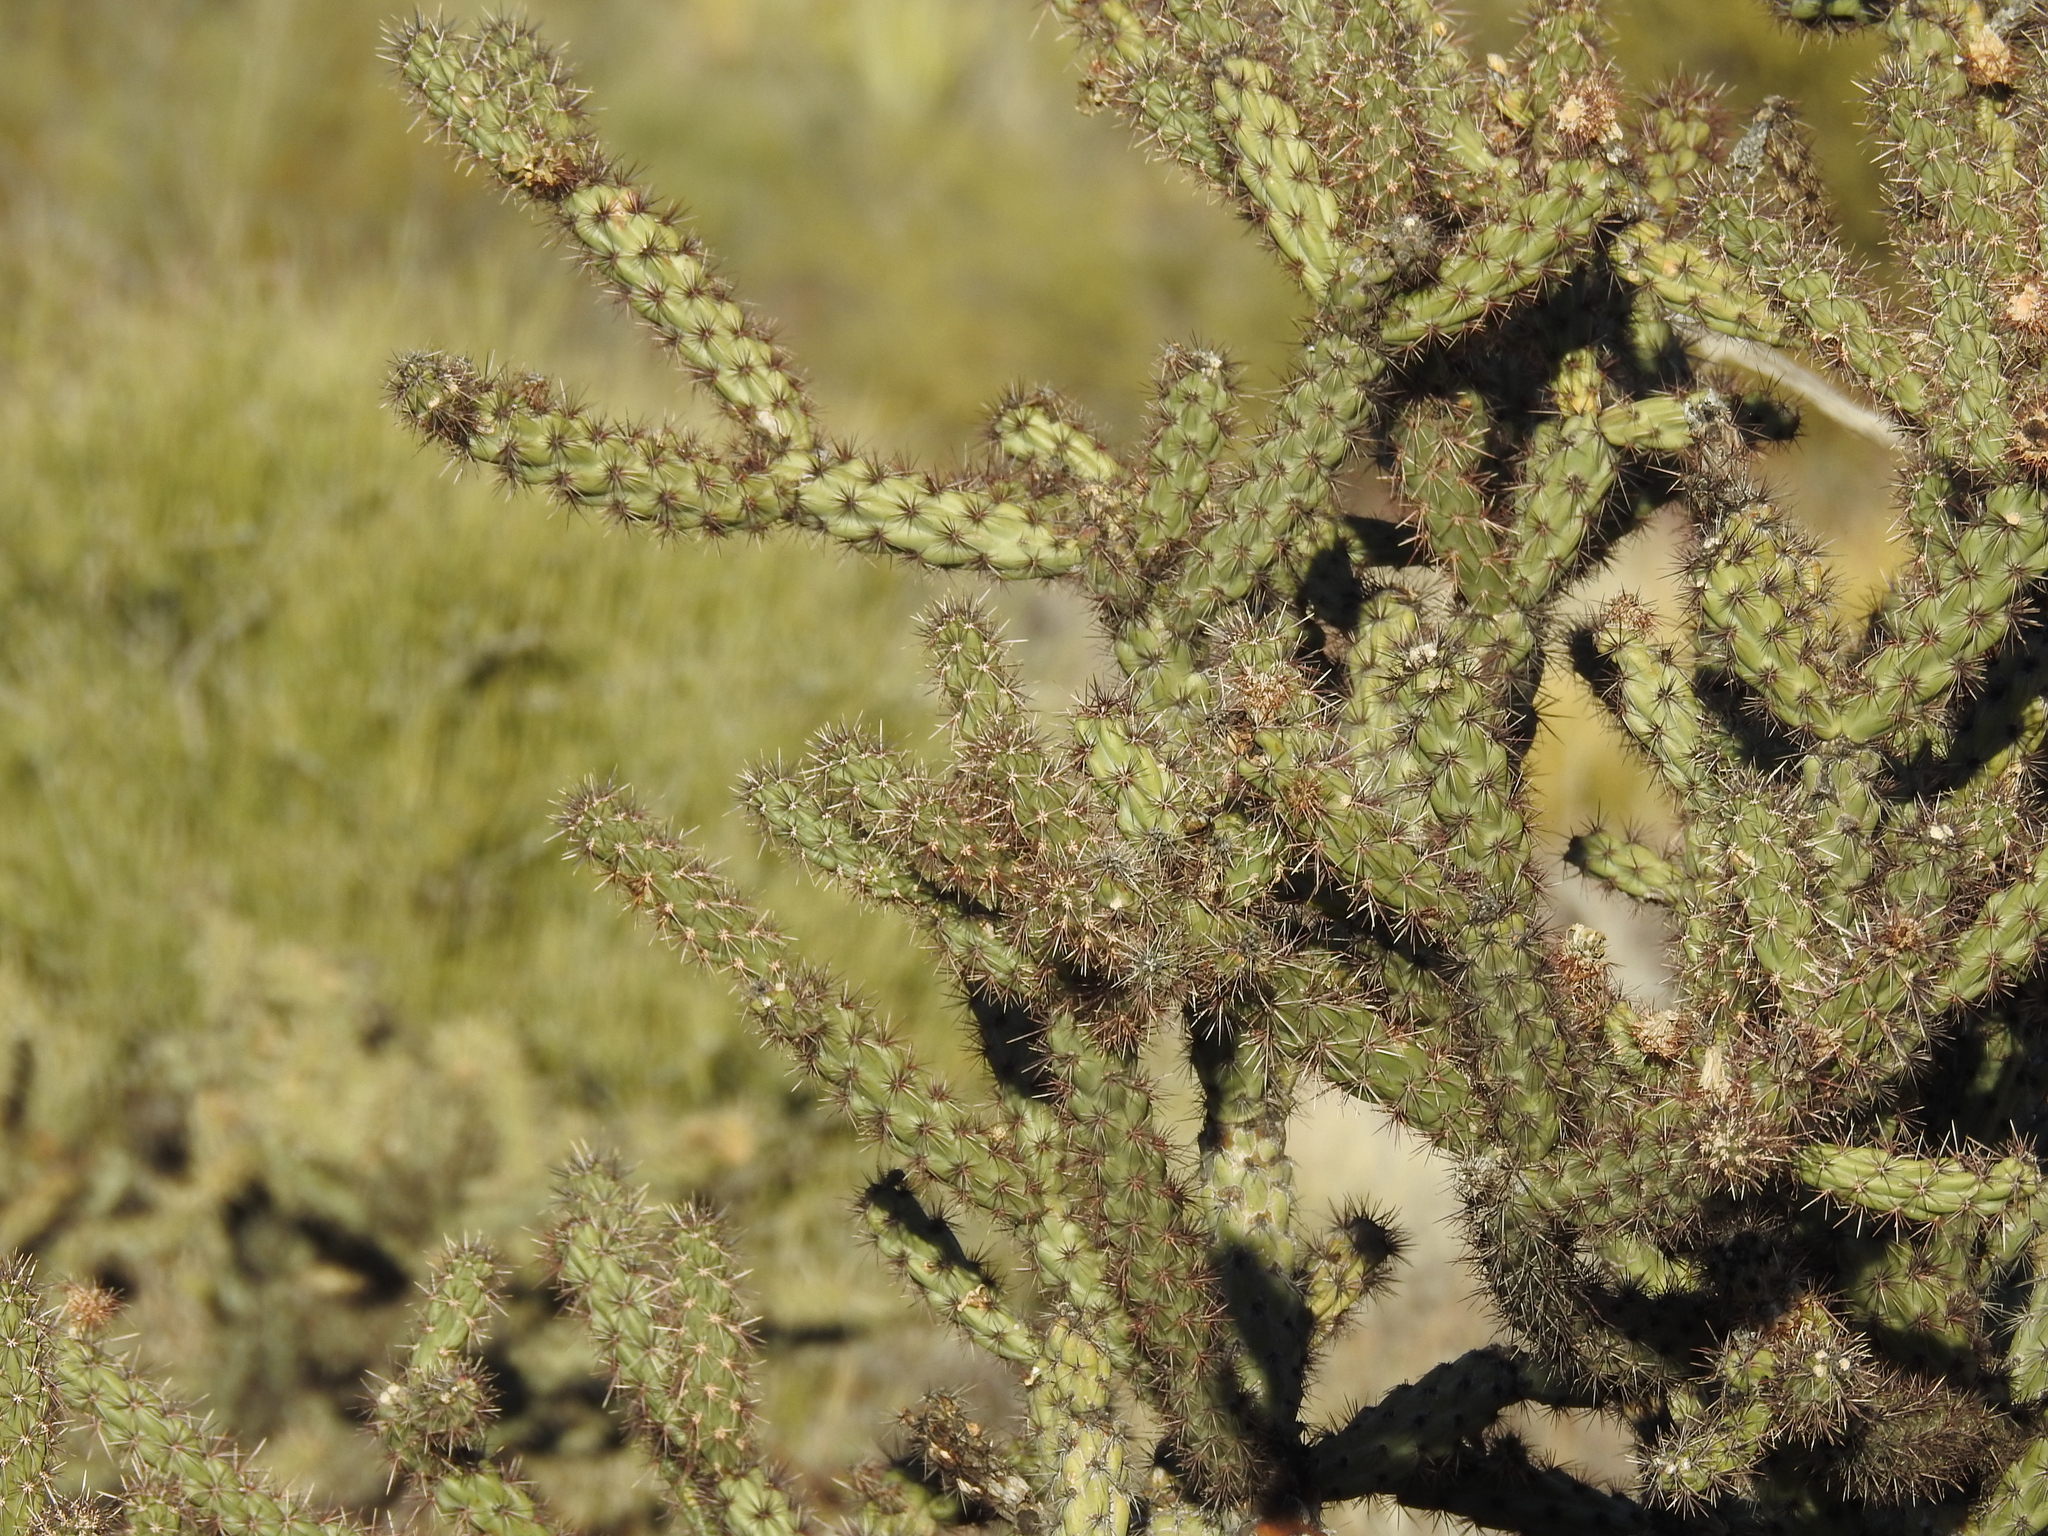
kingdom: Plantae
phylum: Tracheophyta
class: Magnoliopsida
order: Caryophyllales
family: Cactaceae
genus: Cylindropuntia
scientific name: Cylindropuntia acanthocarpa
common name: Buckhorn cholla
